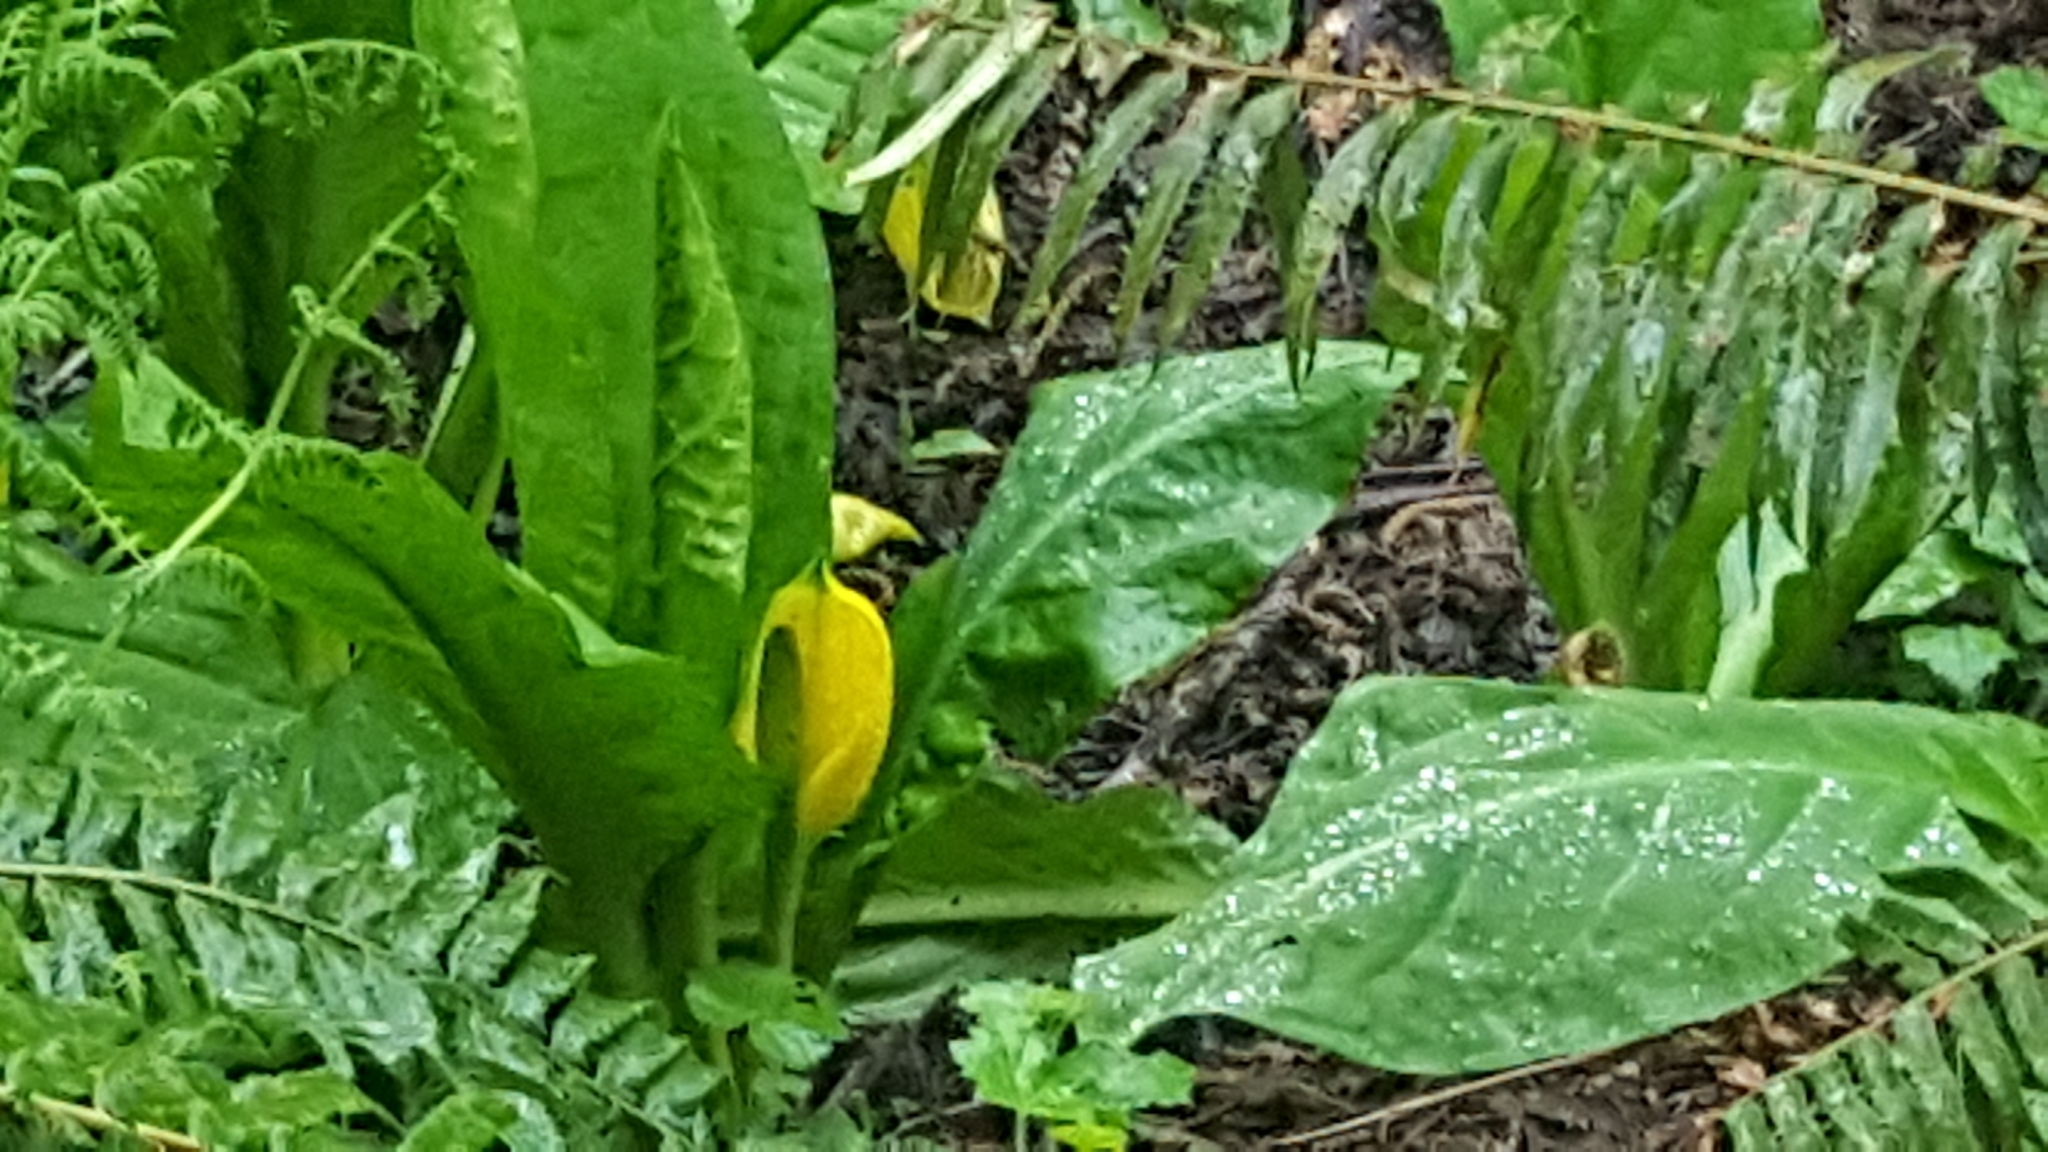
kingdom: Plantae
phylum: Tracheophyta
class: Liliopsida
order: Alismatales
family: Araceae
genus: Lysichiton
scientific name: Lysichiton americanus
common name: American skunk cabbage
